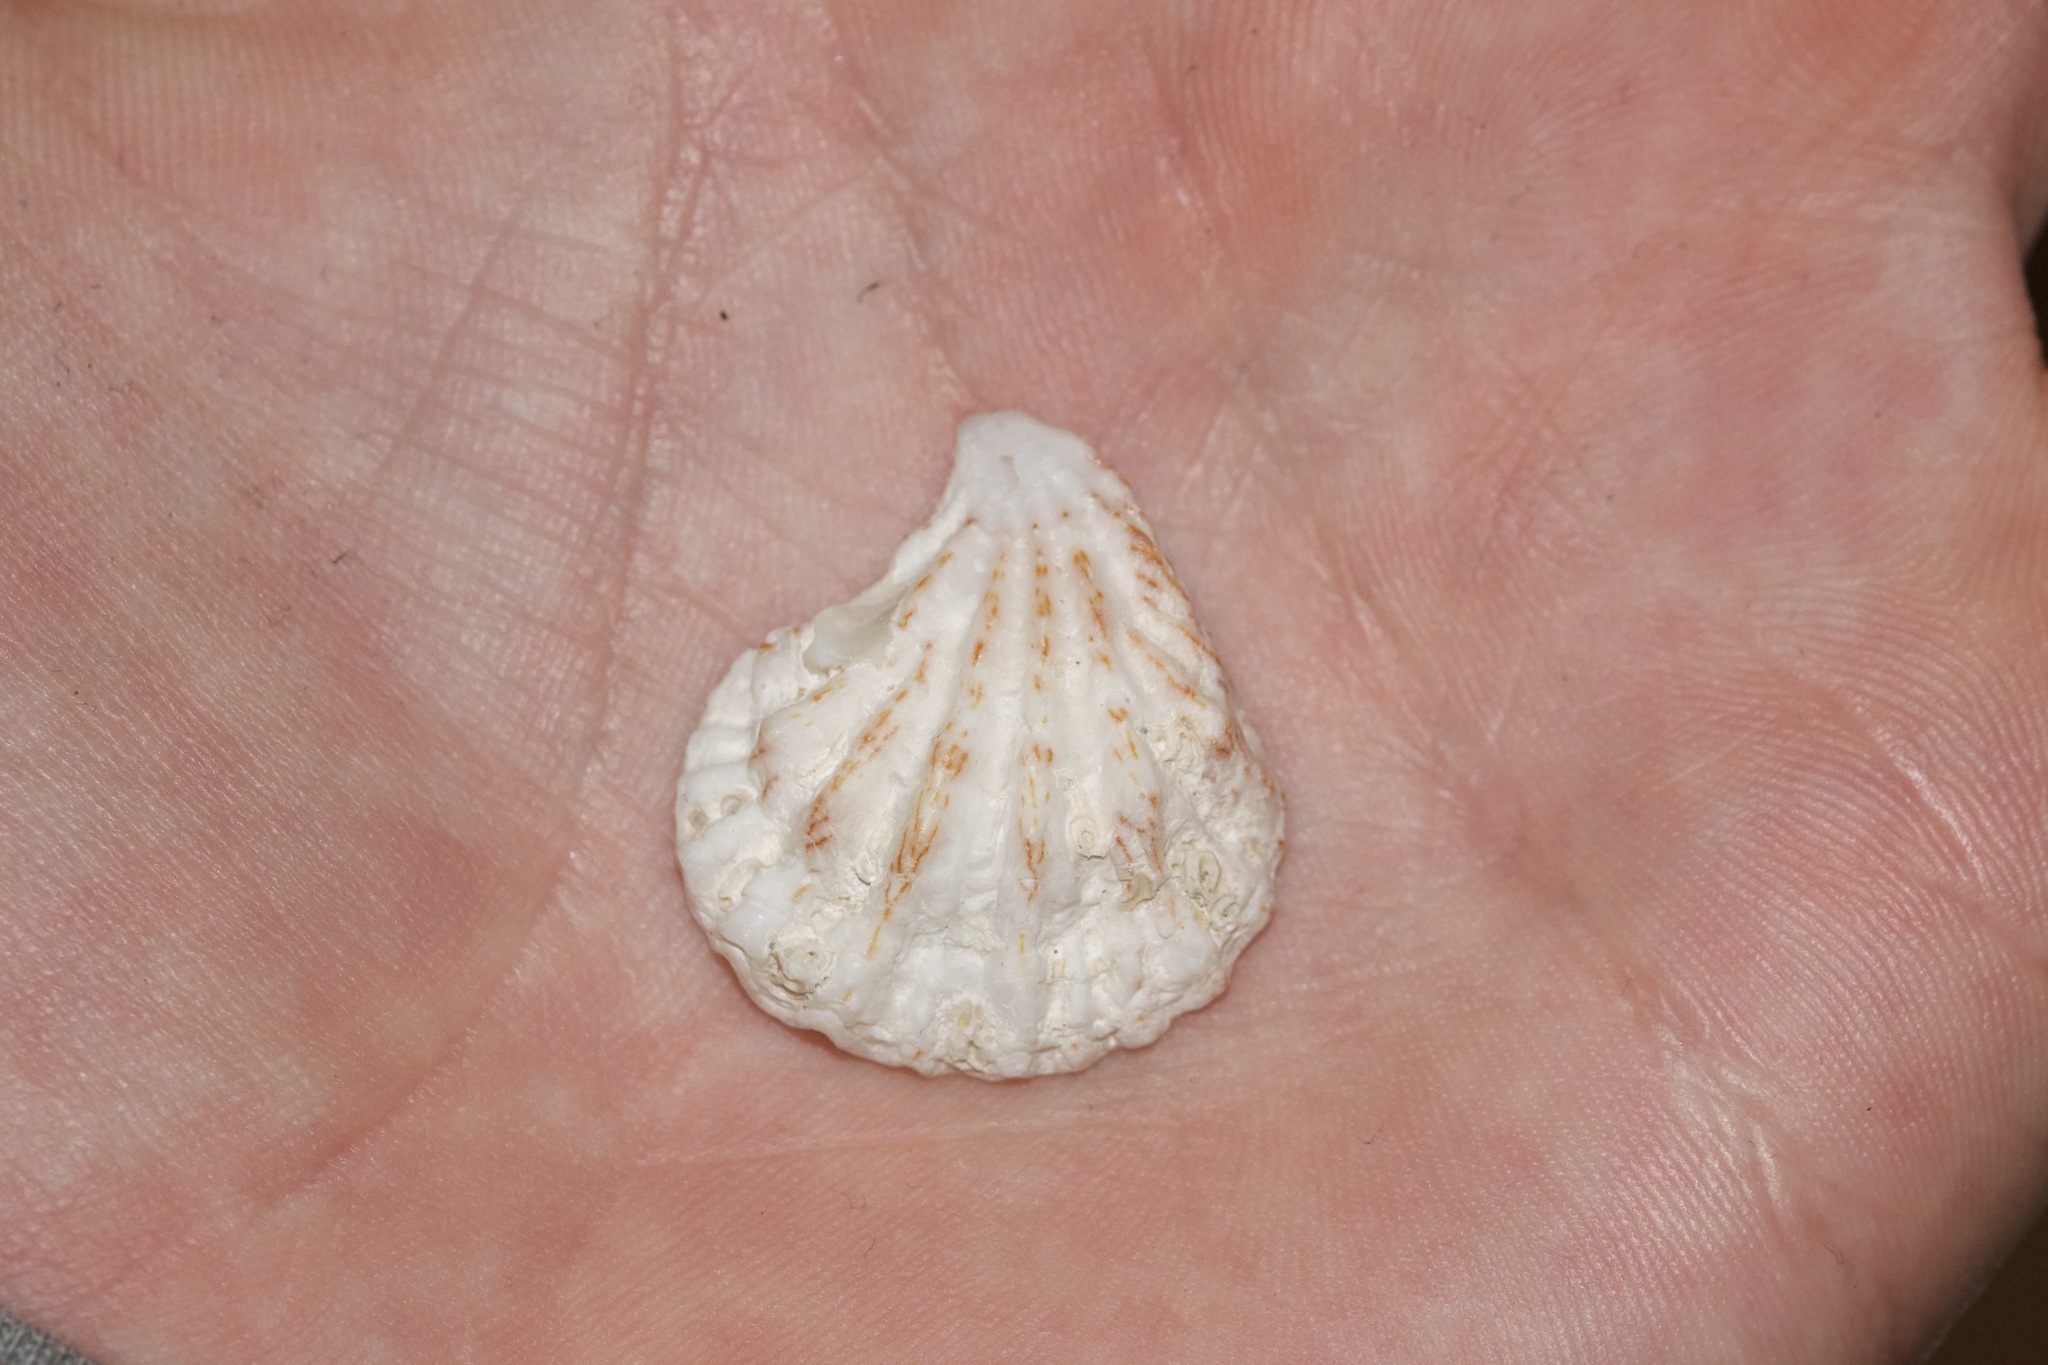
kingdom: Animalia
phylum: Mollusca
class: Bivalvia
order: Pectinida
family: Plicatulidae
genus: Plicatula
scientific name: Plicatula gibbosa
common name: Atlantic kitten's paw
